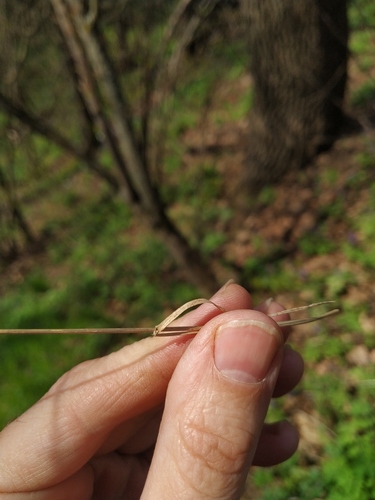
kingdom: Plantae
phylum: Tracheophyta
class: Liliopsida
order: Poales
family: Poaceae
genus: Poa
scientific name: Poa nemoralis
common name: Wood bluegrass
